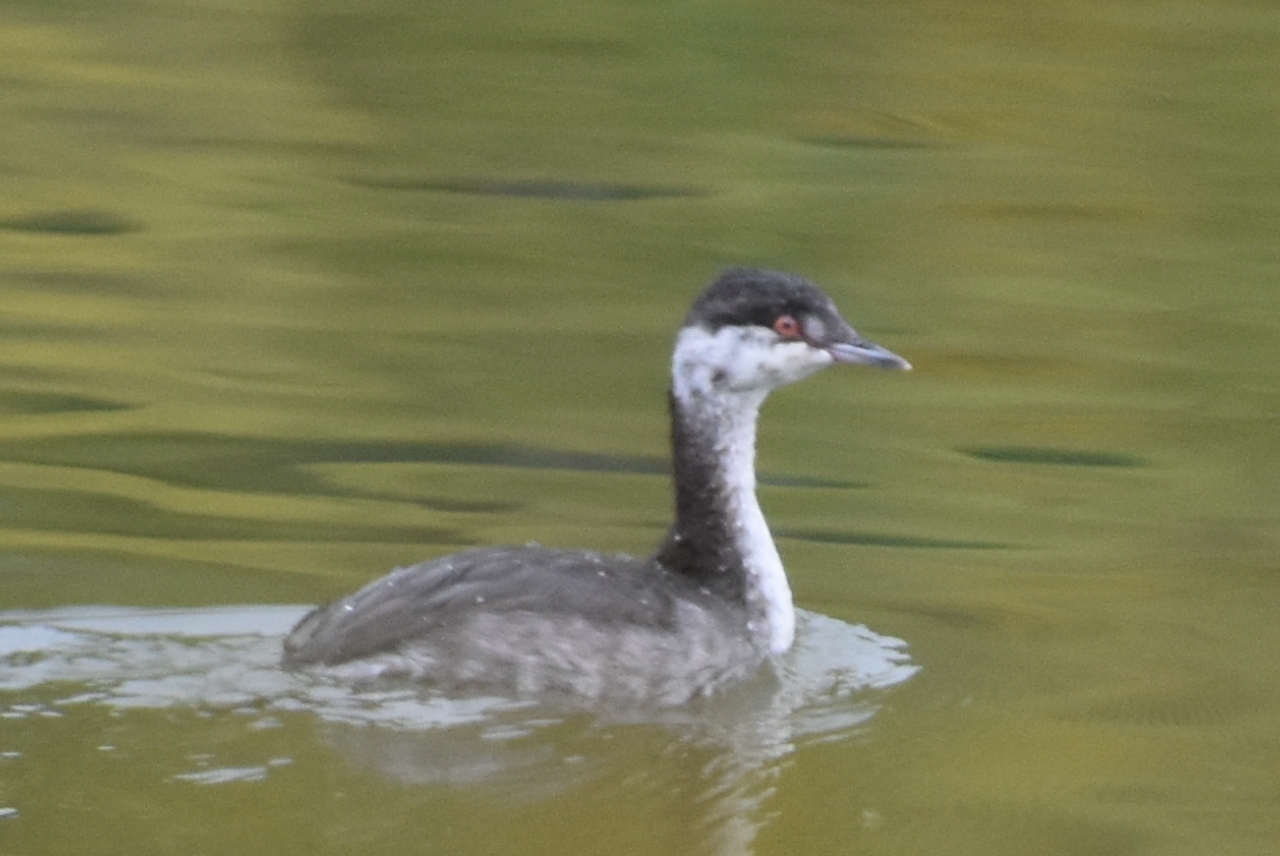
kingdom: Animalia
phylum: Chordata
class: Aves
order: Podicipediformes
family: Podicipedidae
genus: Podiceps
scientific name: Podiceps auritus
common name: Horned grebe
